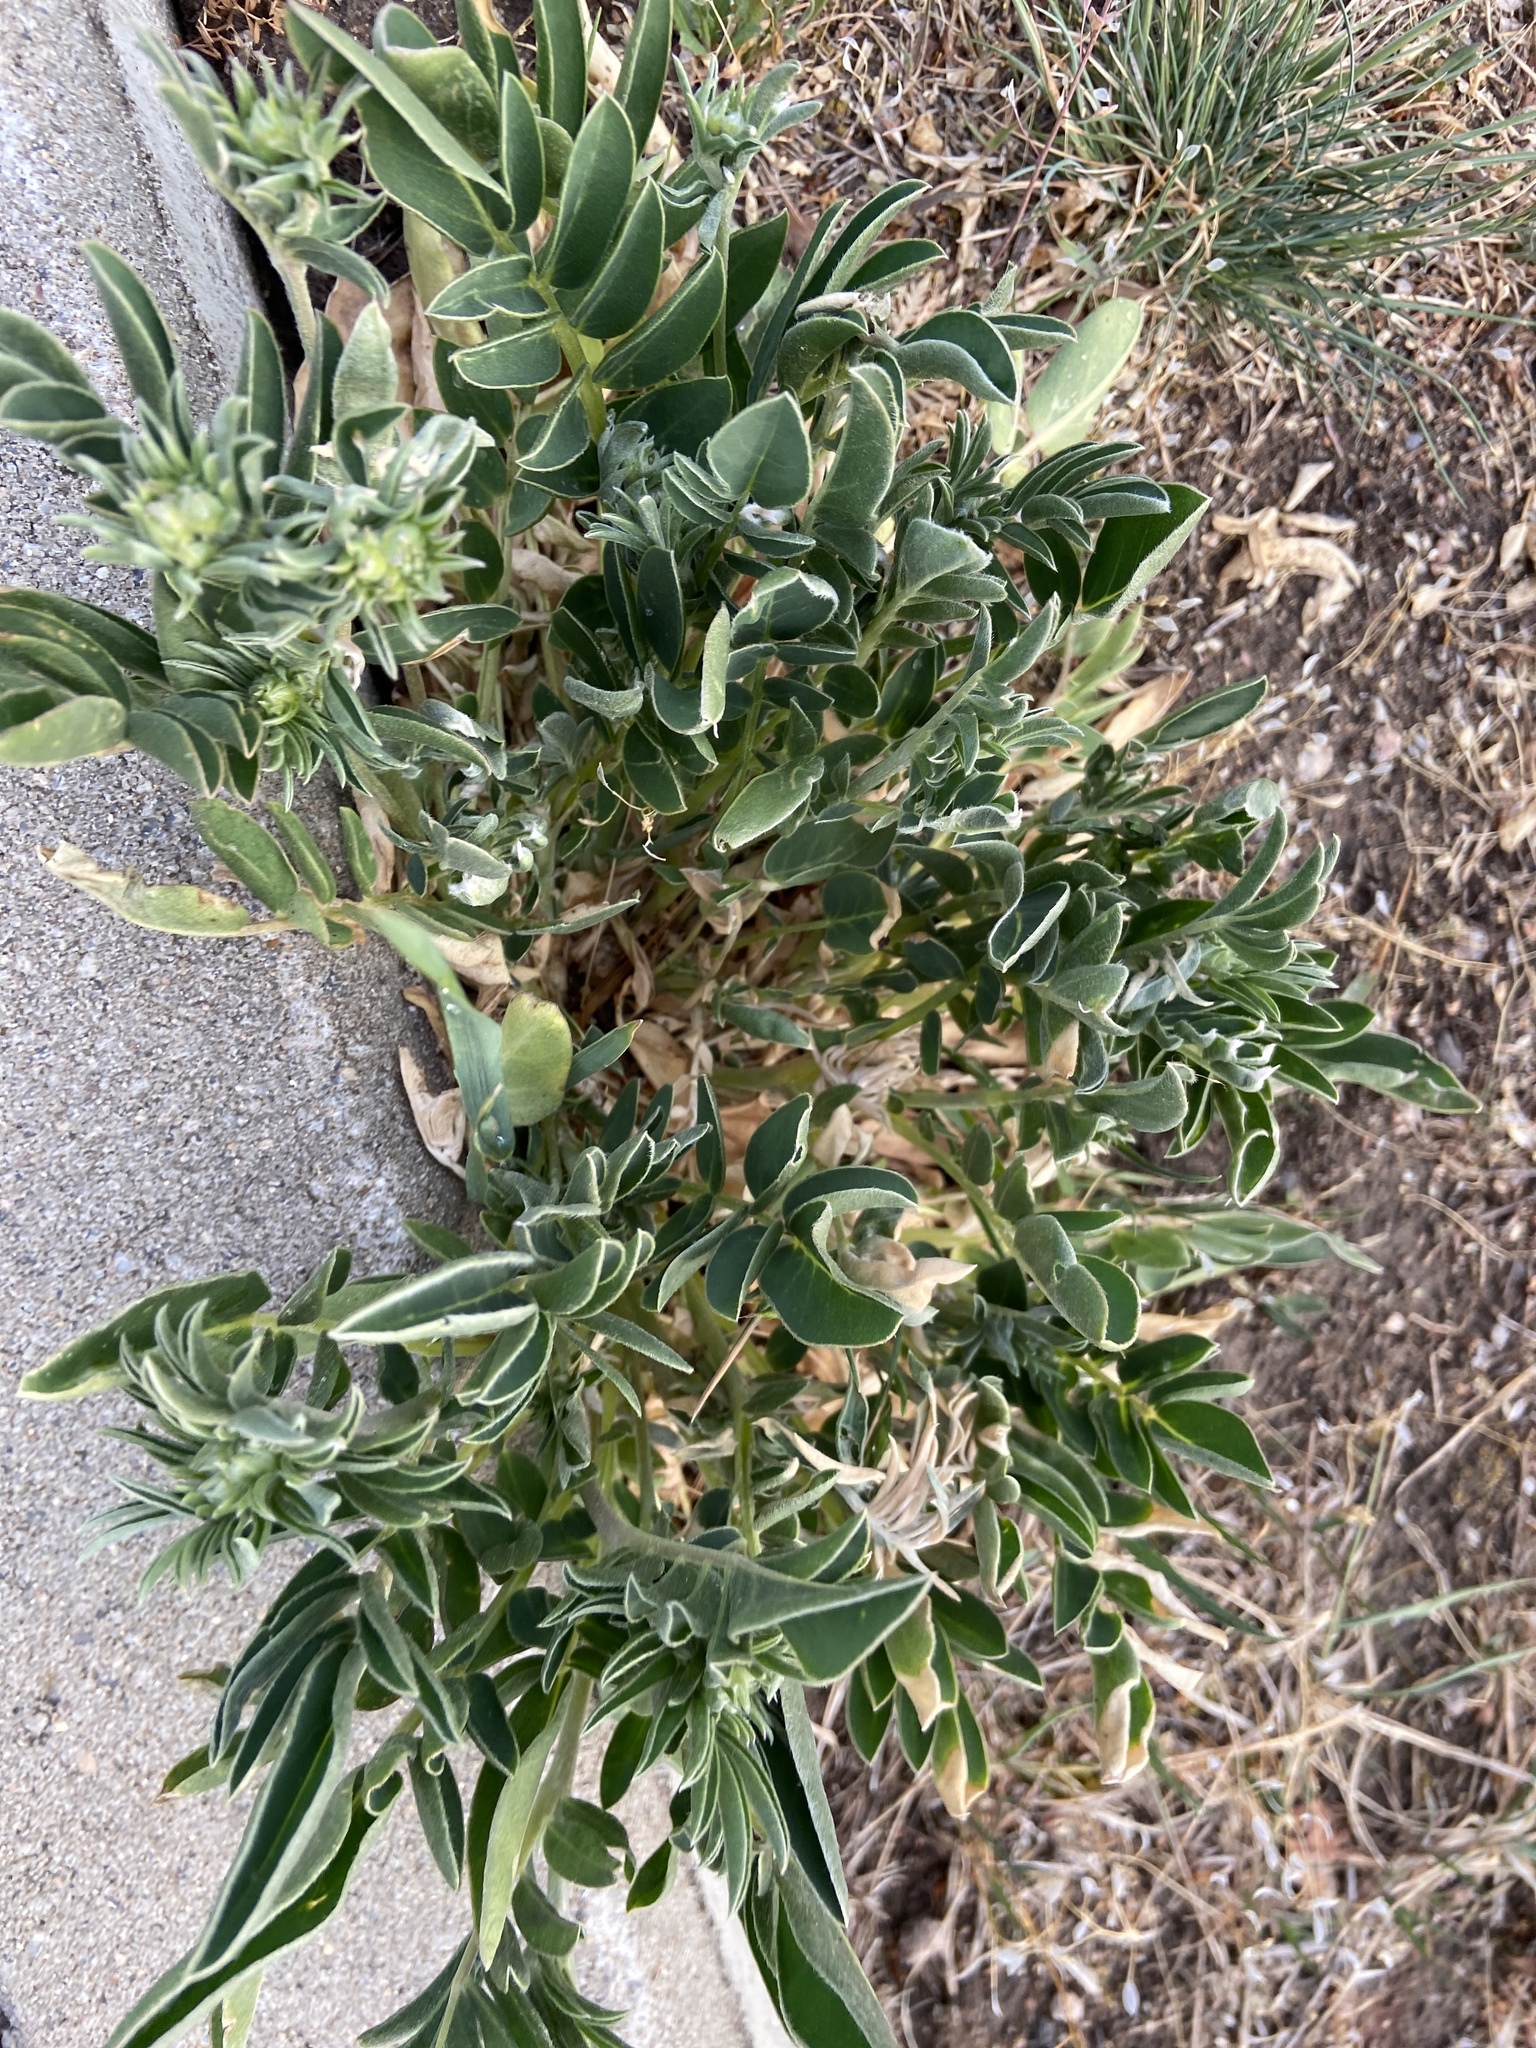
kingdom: Plantae
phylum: Tracheophyta
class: Magnoliopsida
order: Fabales
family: Fabaceae
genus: Anthyllis
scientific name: Anthyllis vulneraria
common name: Kidney vetch
